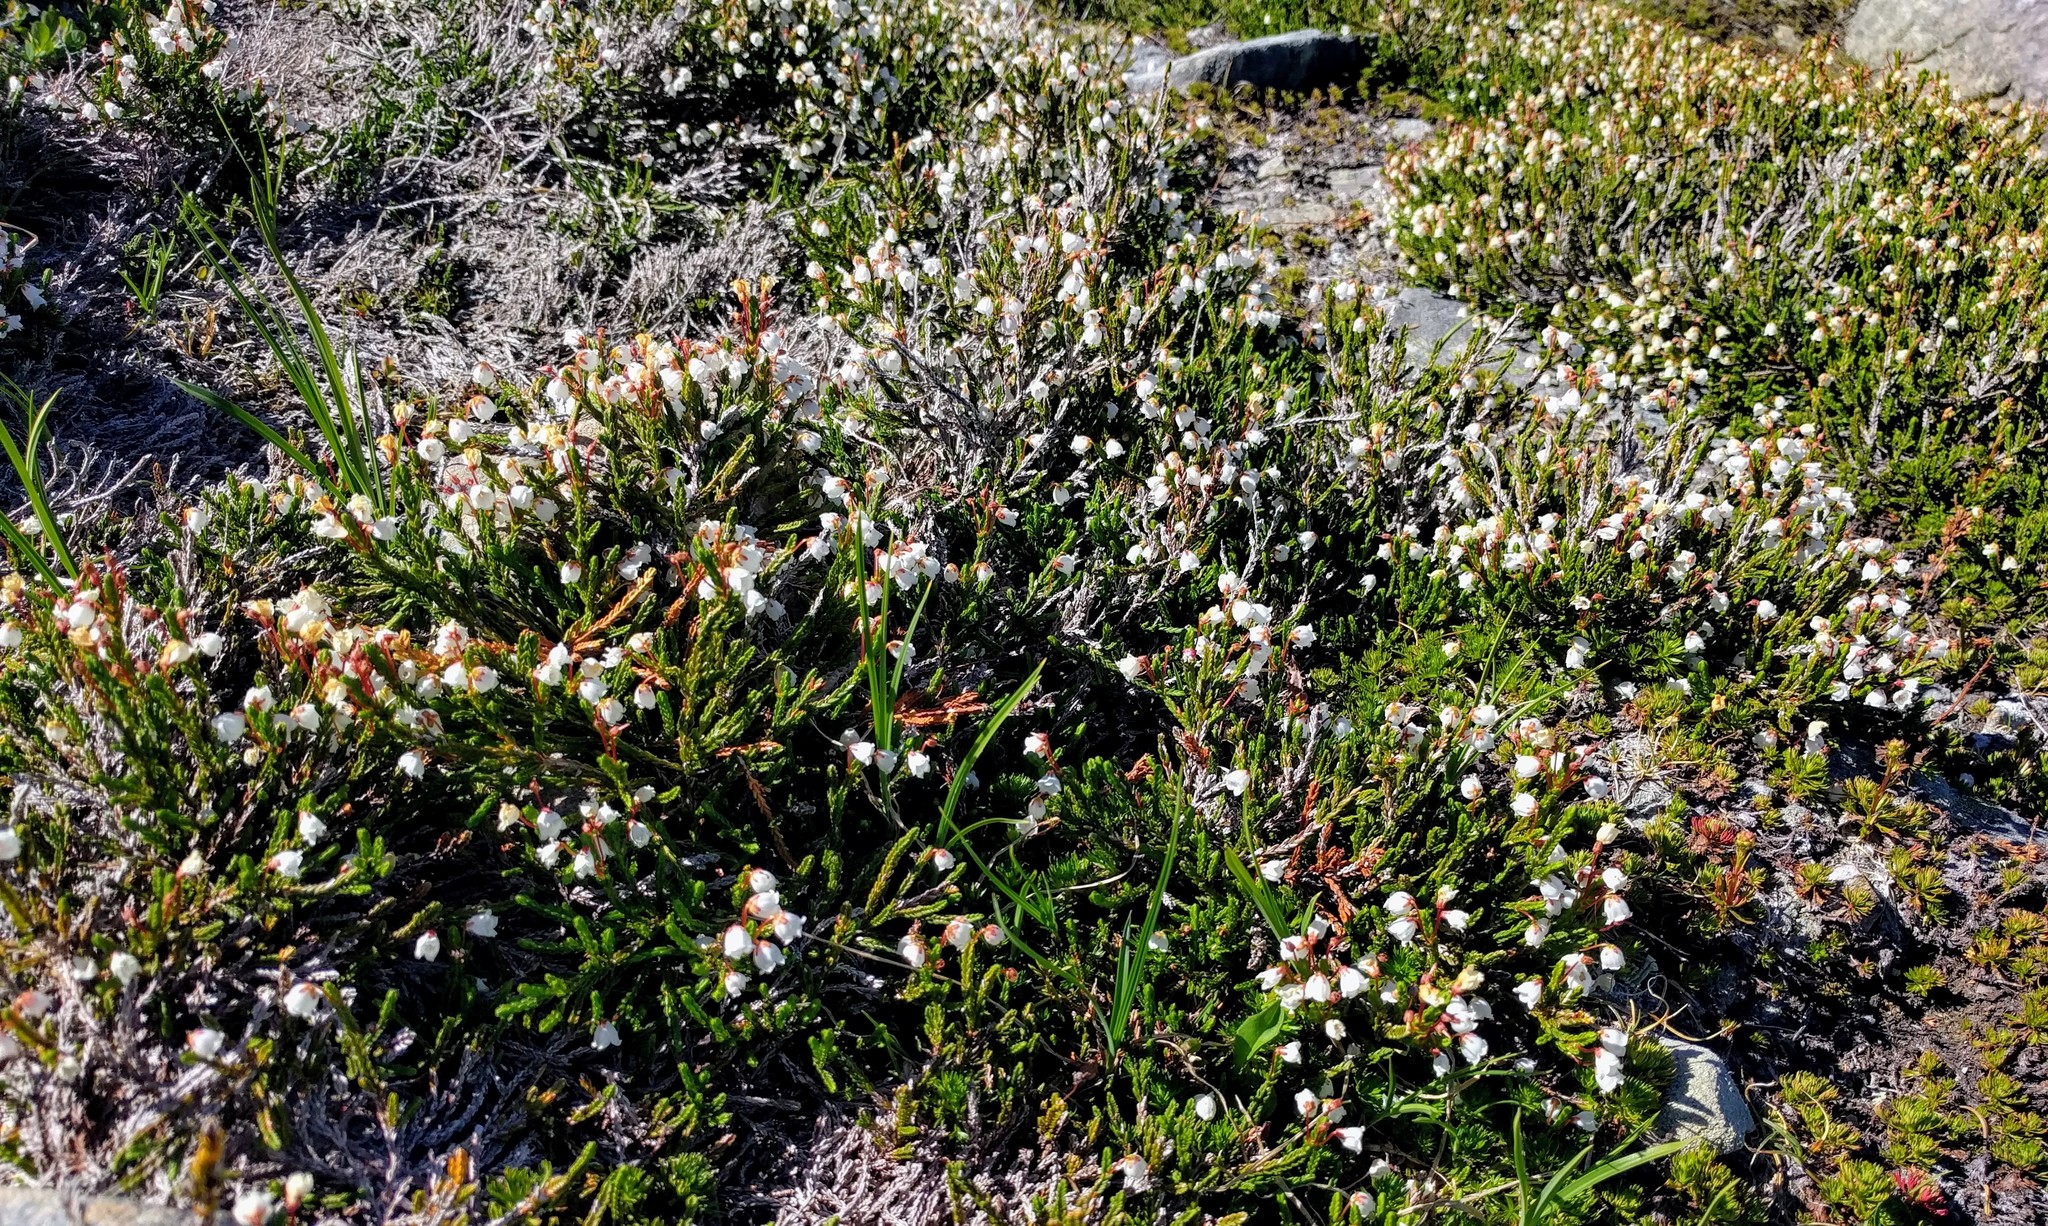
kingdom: Plantae
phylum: Tracheophyta
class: Magnoliopsida
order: Ericales
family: Ericaceae
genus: Cassiope
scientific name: Cassiope mertensiana
